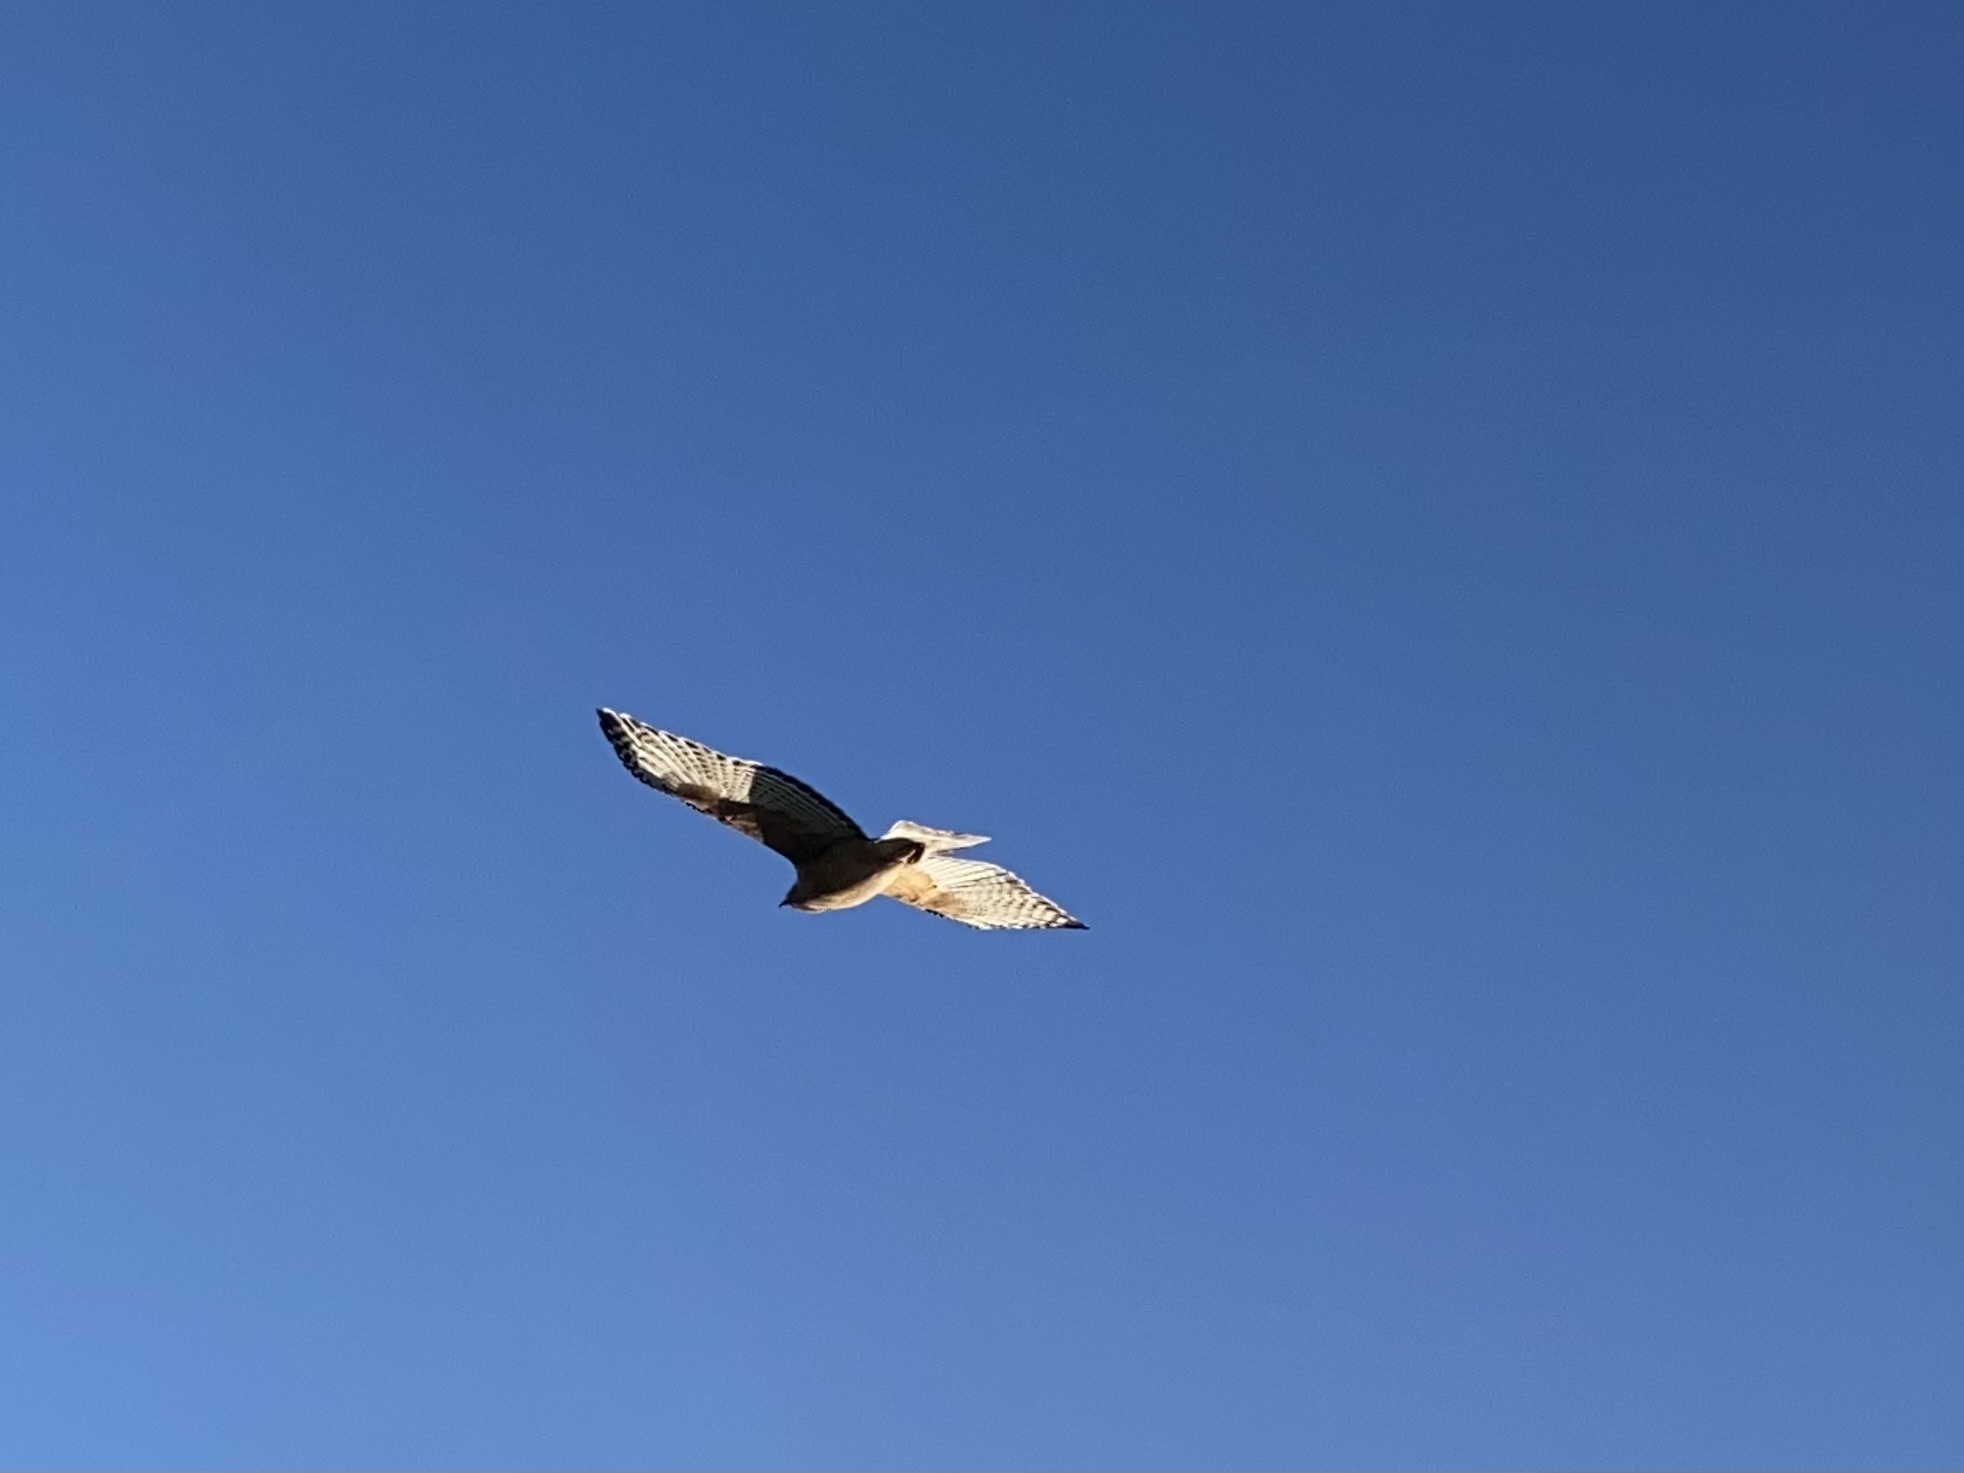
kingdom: Animalia
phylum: Chordata
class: Aves
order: Accipitriformes
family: Accipitridae
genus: Buteo
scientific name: Buteo lineatus
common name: Red-shouldered hawk
